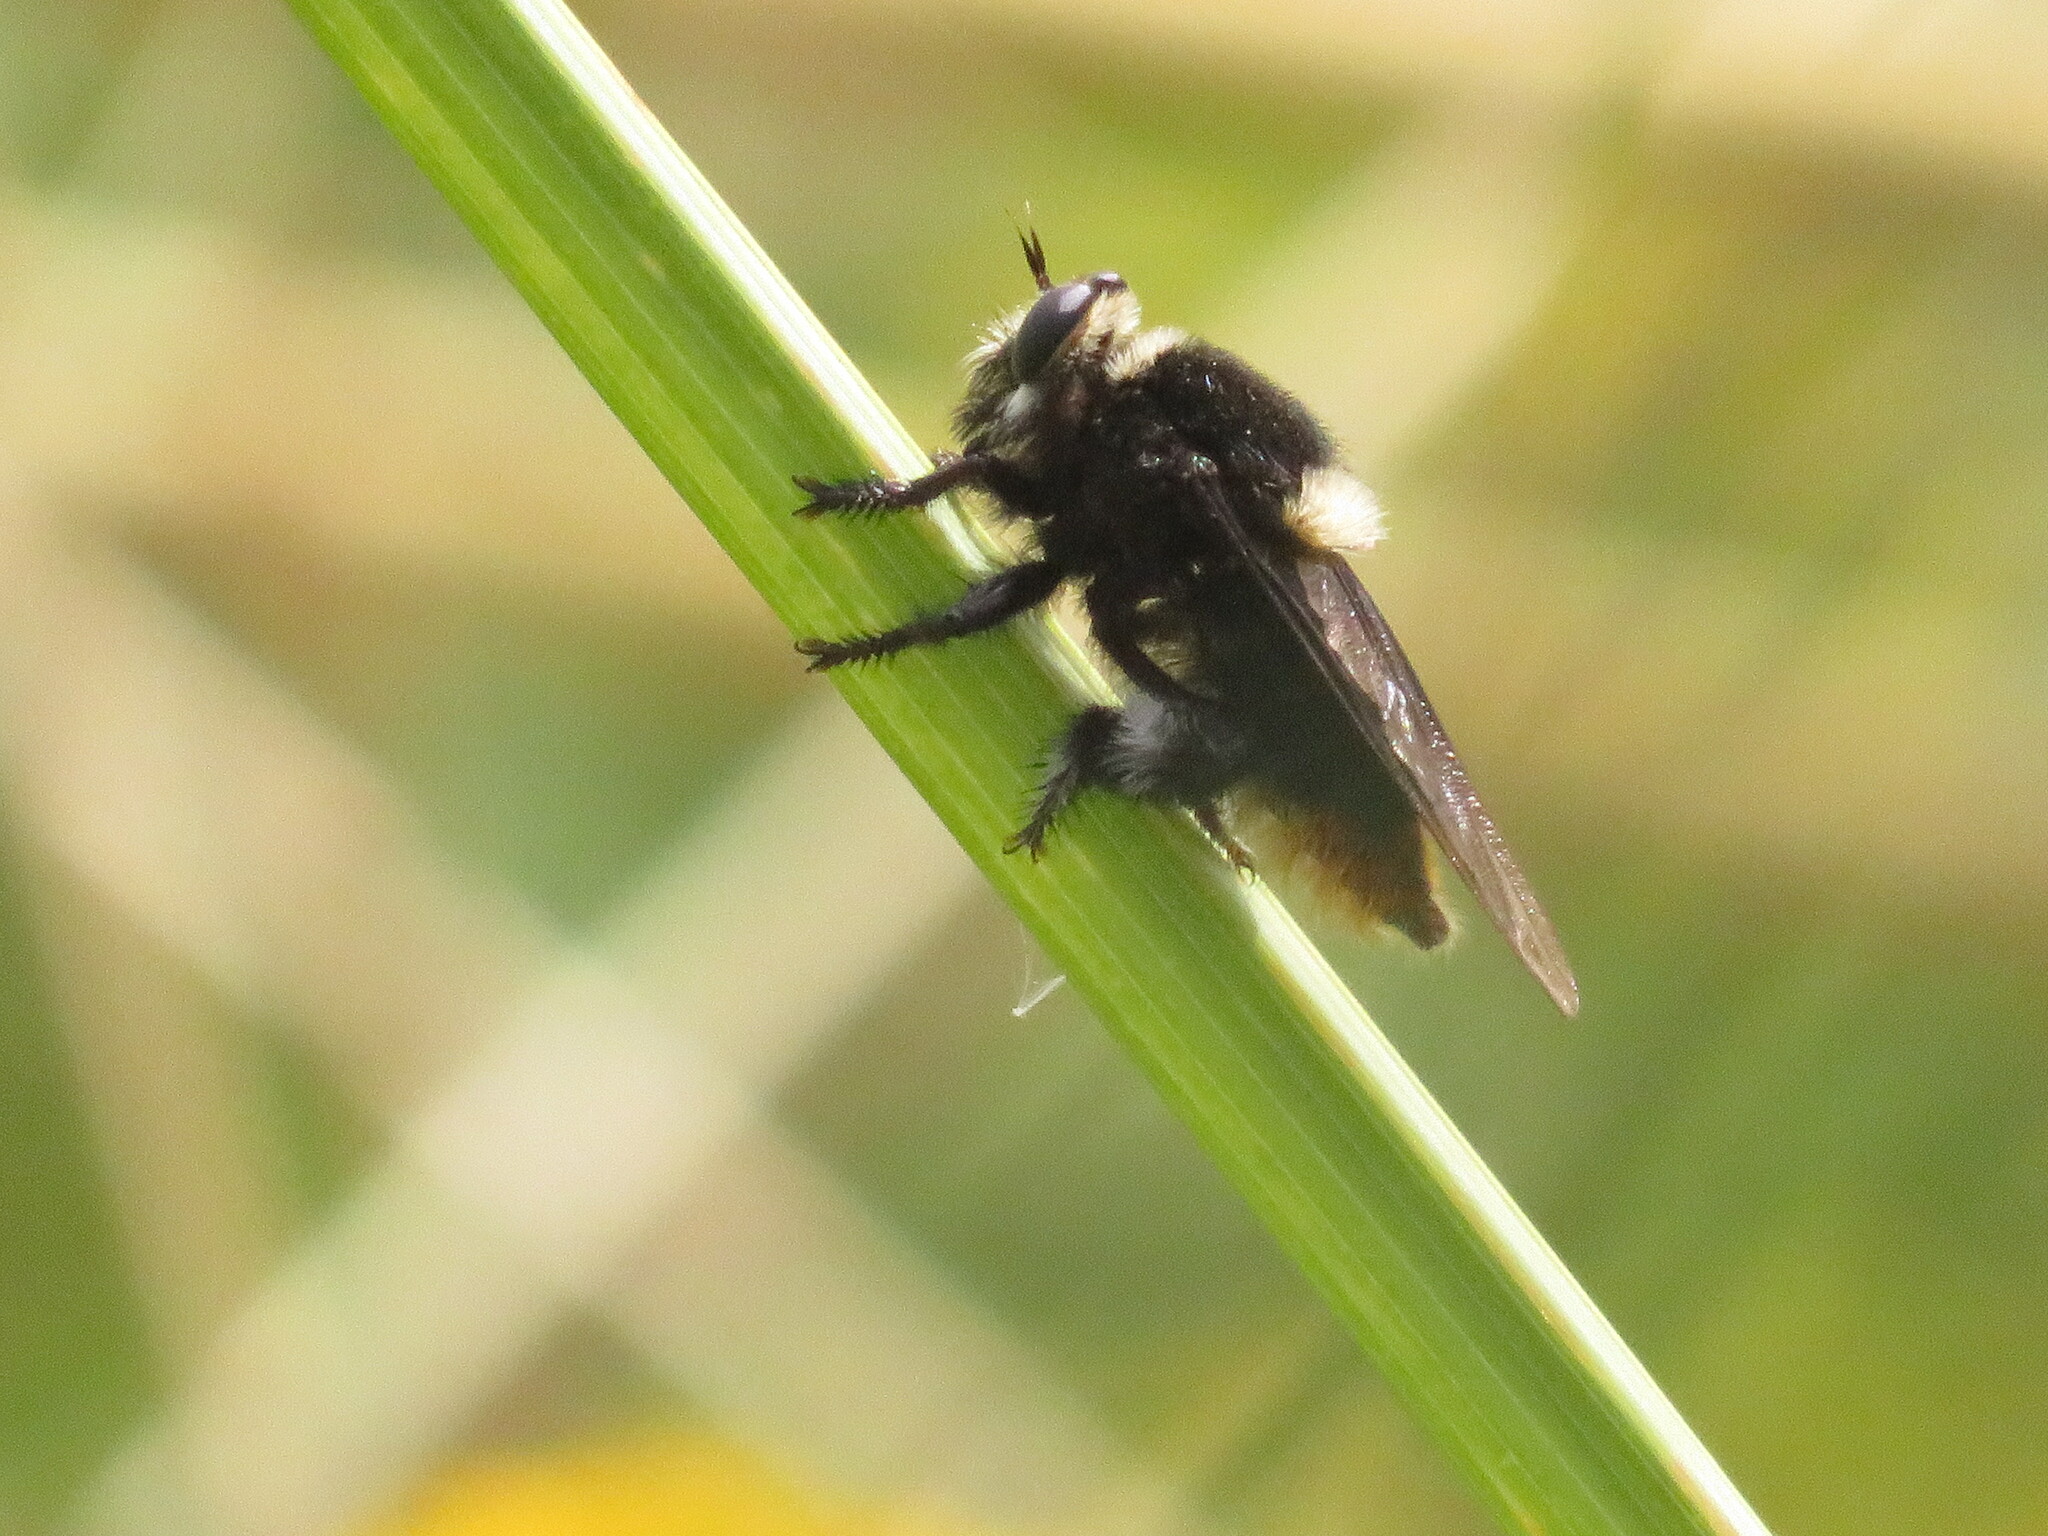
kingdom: Animalia
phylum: Arthropoda
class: Insecta
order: Diptera
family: Asilidae
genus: Mallophora
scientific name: Mallophora ruficauda
